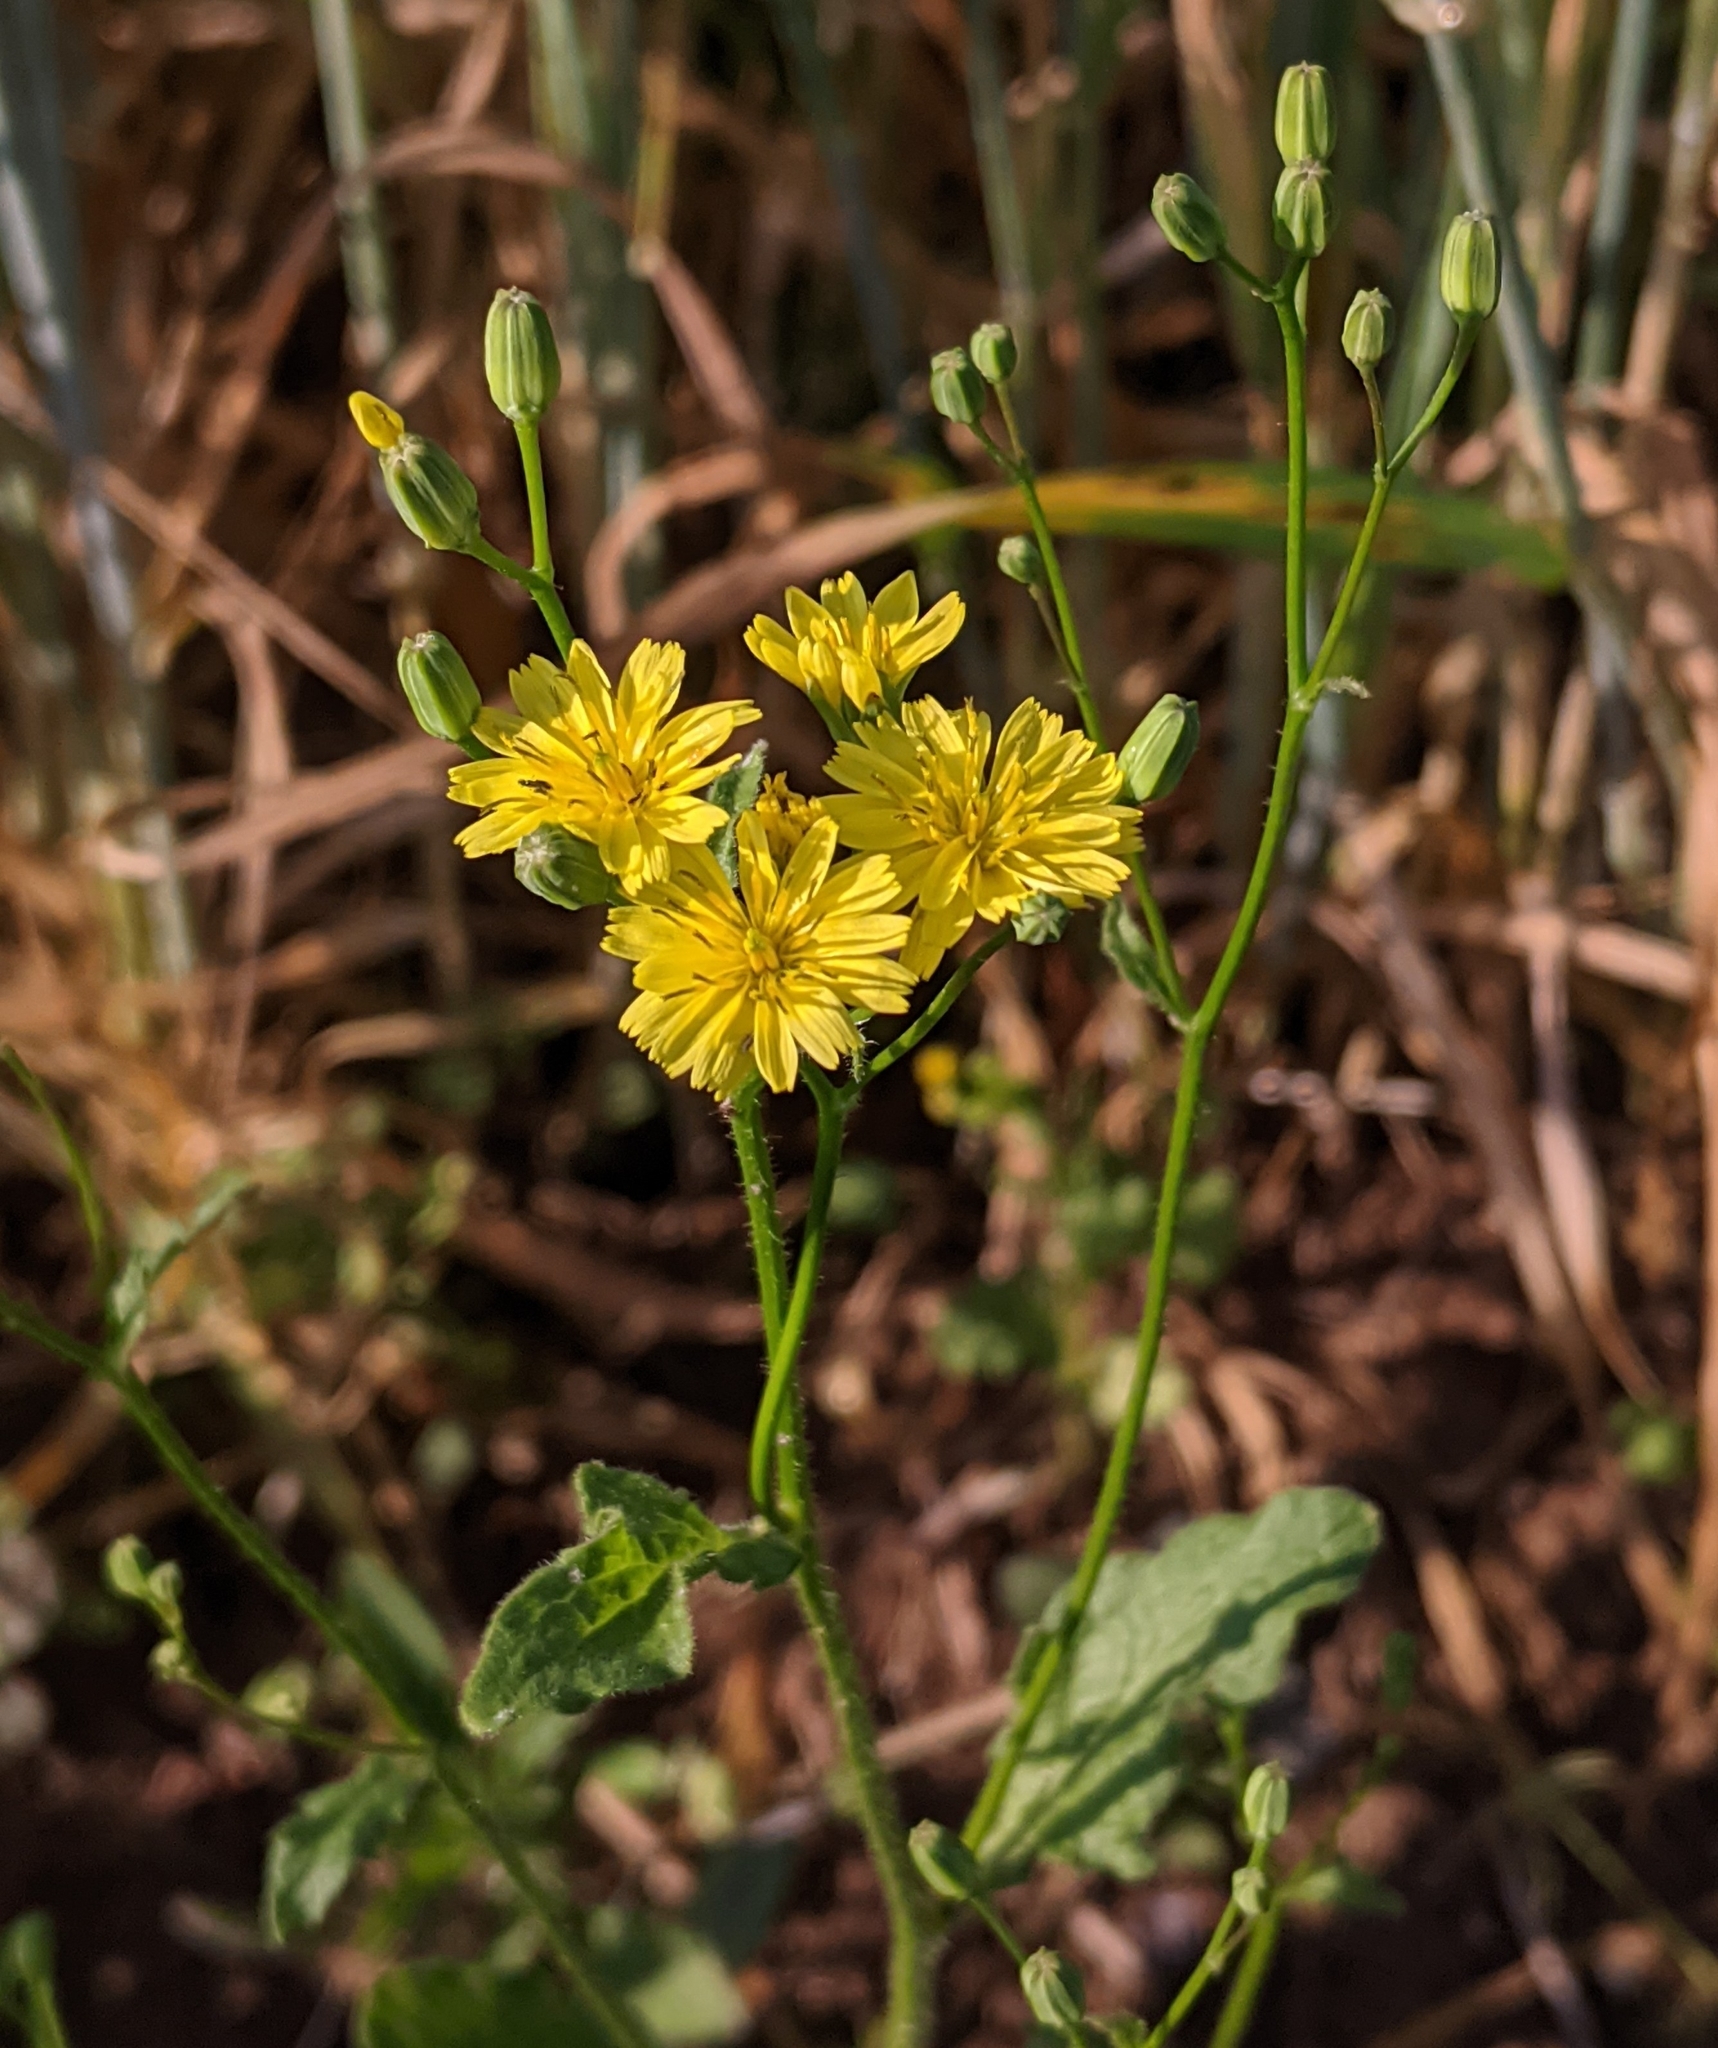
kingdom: Plantae
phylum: Tracheophyta
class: Magnoliopsida
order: Asterales
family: Asteraceae
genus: Lapsana
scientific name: Lapsana communis
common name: Nipplewort
